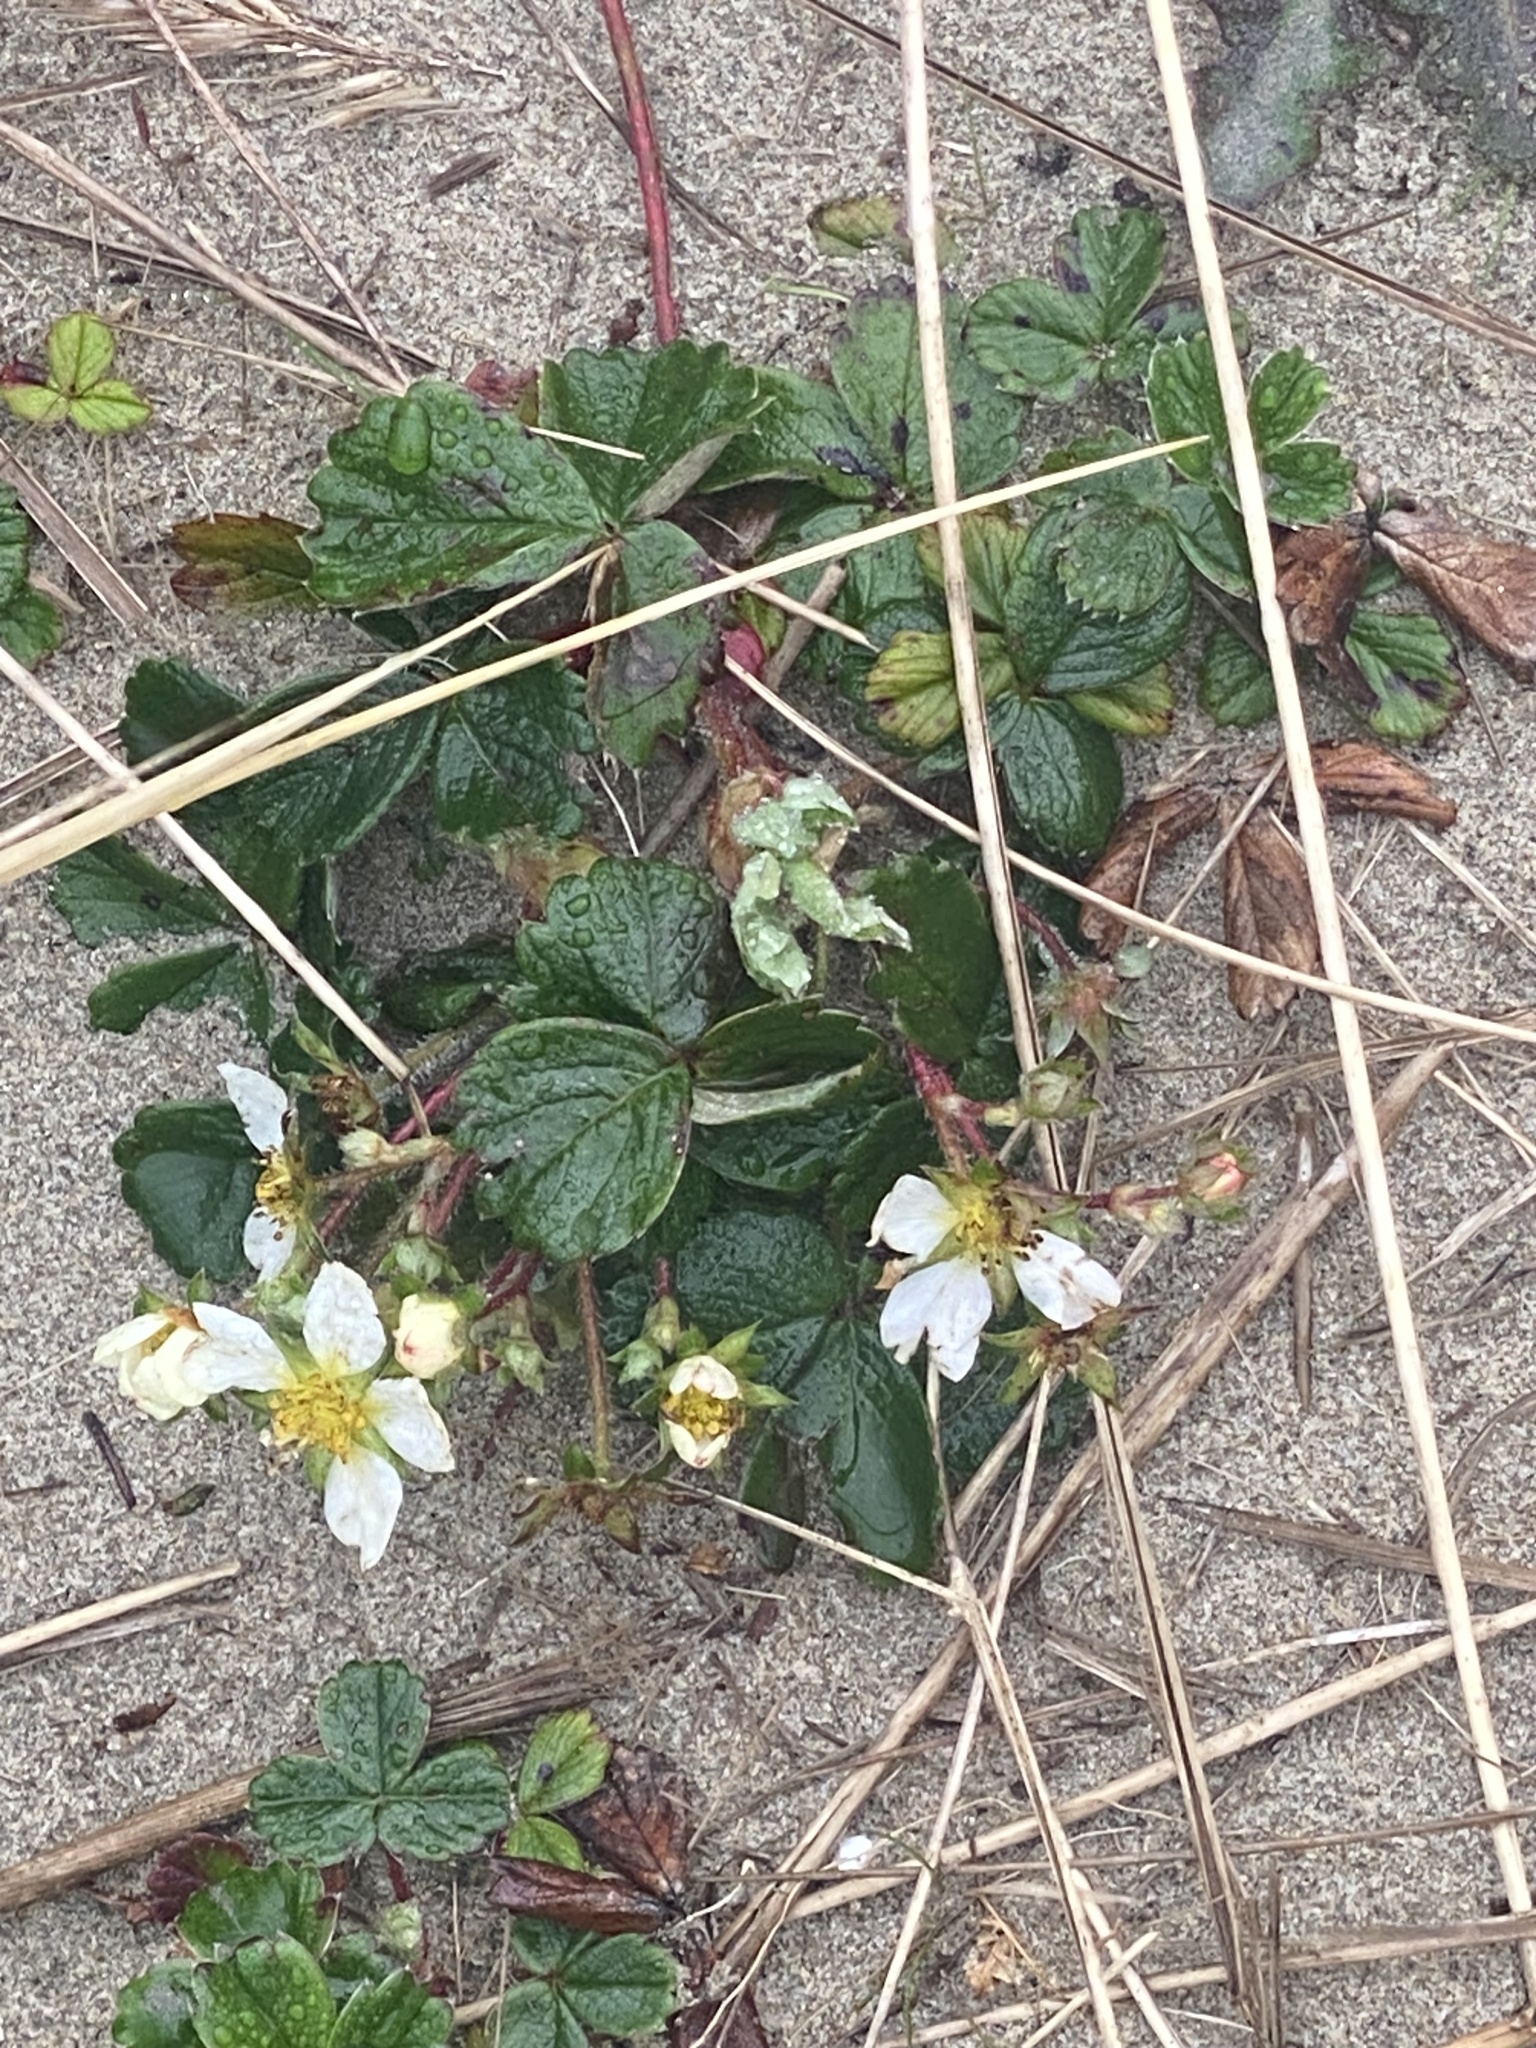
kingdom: Plantae
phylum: Tracheophyta
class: Magnoliopsida
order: Rosales
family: Rosaceae
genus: Fragaria
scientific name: Fragaria chiloensis
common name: Beach strawberry
